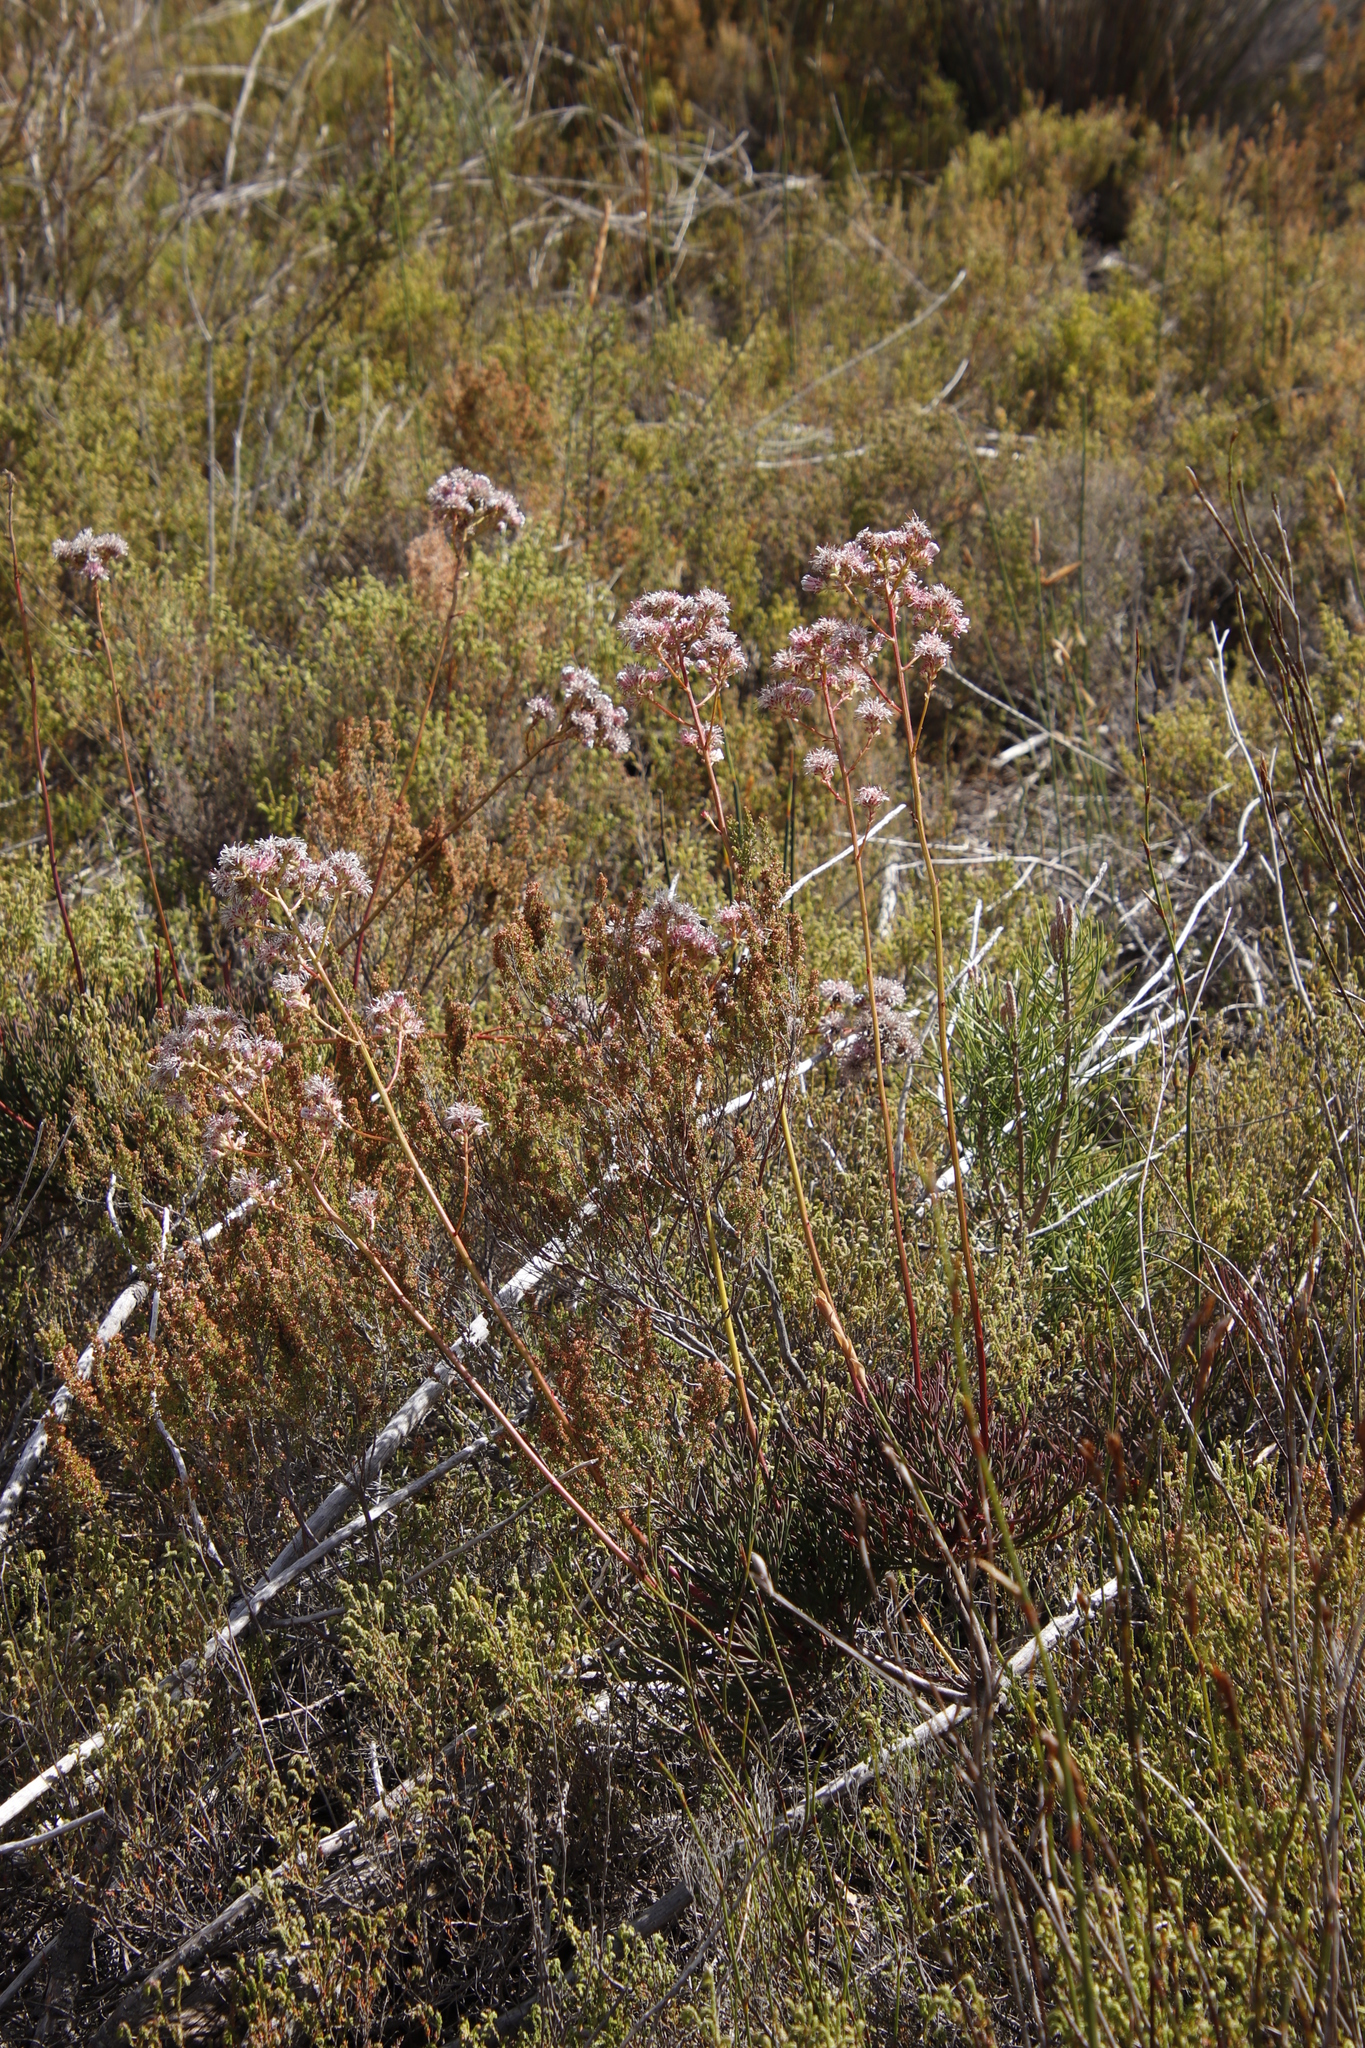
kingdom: Plantae
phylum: Tracheophyta
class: Magnoliopsida
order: Proteales
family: Proteaceae
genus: Serruria
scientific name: Serruria elongata
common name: Long-stalk spiderhead
